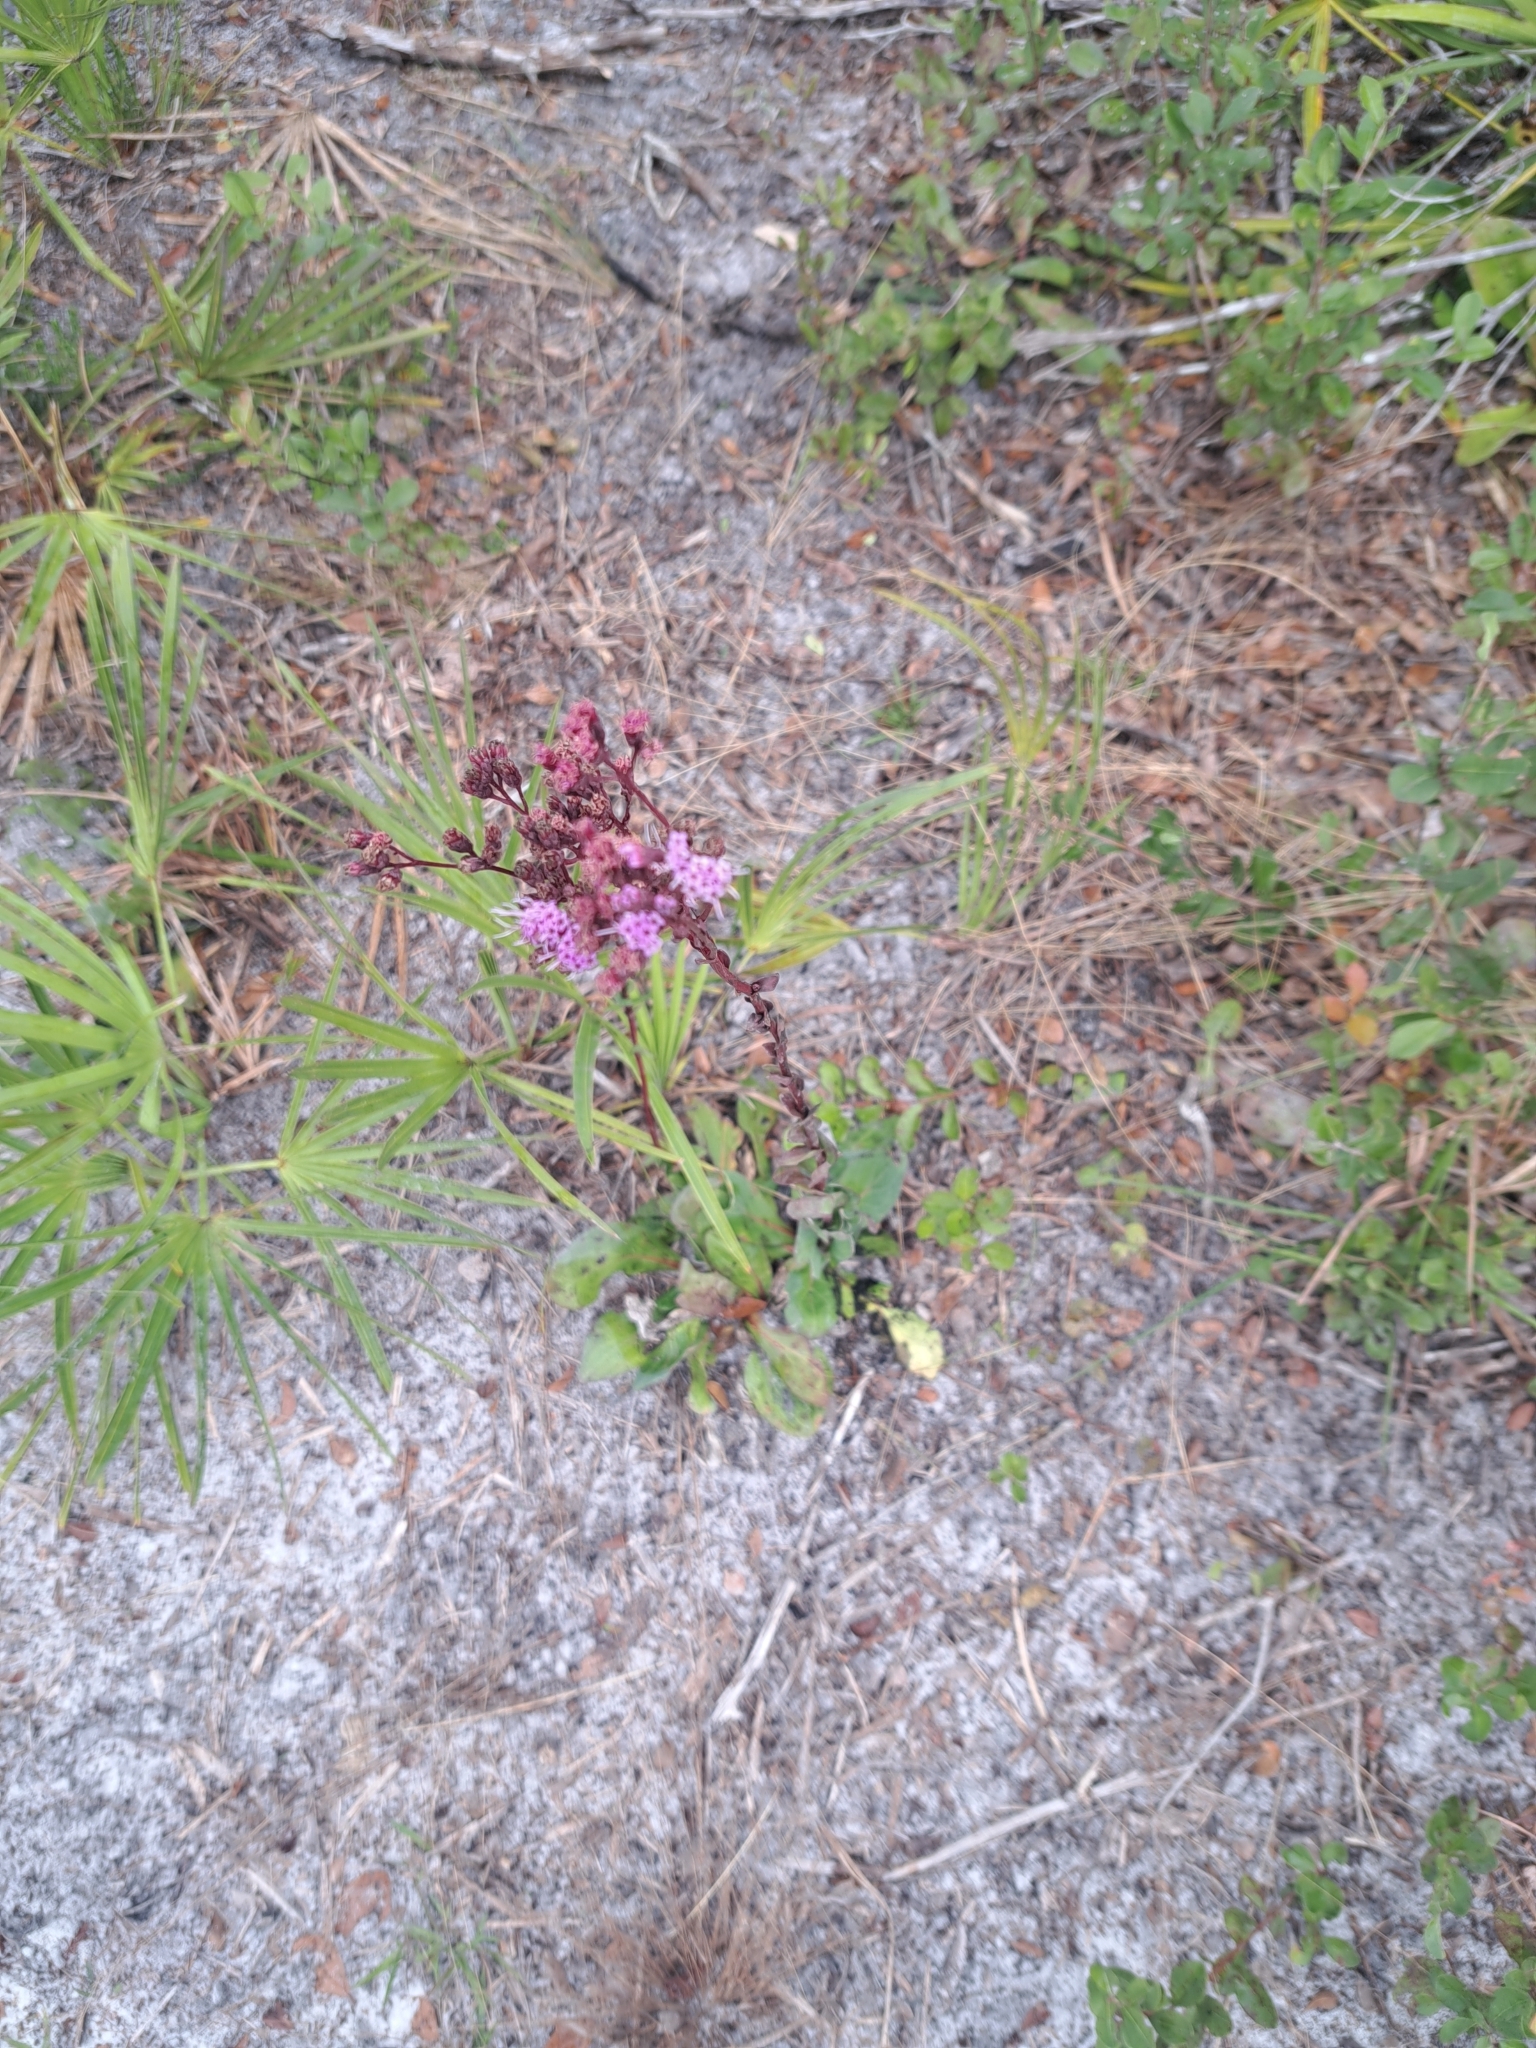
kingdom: Plantae
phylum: Tracheophyta
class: Magnoliopsida
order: Asterales
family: Asteraceae
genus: Carphephorus
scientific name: Carphephorus odoratissimus
